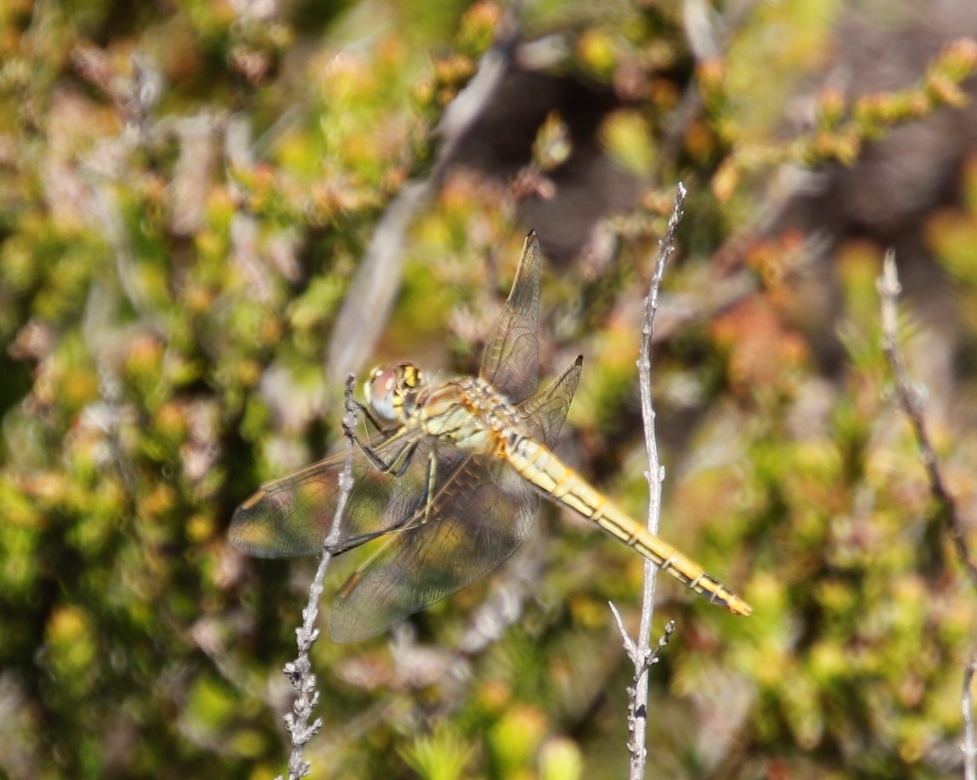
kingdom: Animalia
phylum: Arthropoda
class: Insecta
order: Odonata
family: Libellulidae
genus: Sympetrum
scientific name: Sympetrum fonscolombii
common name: Red-veined darter
